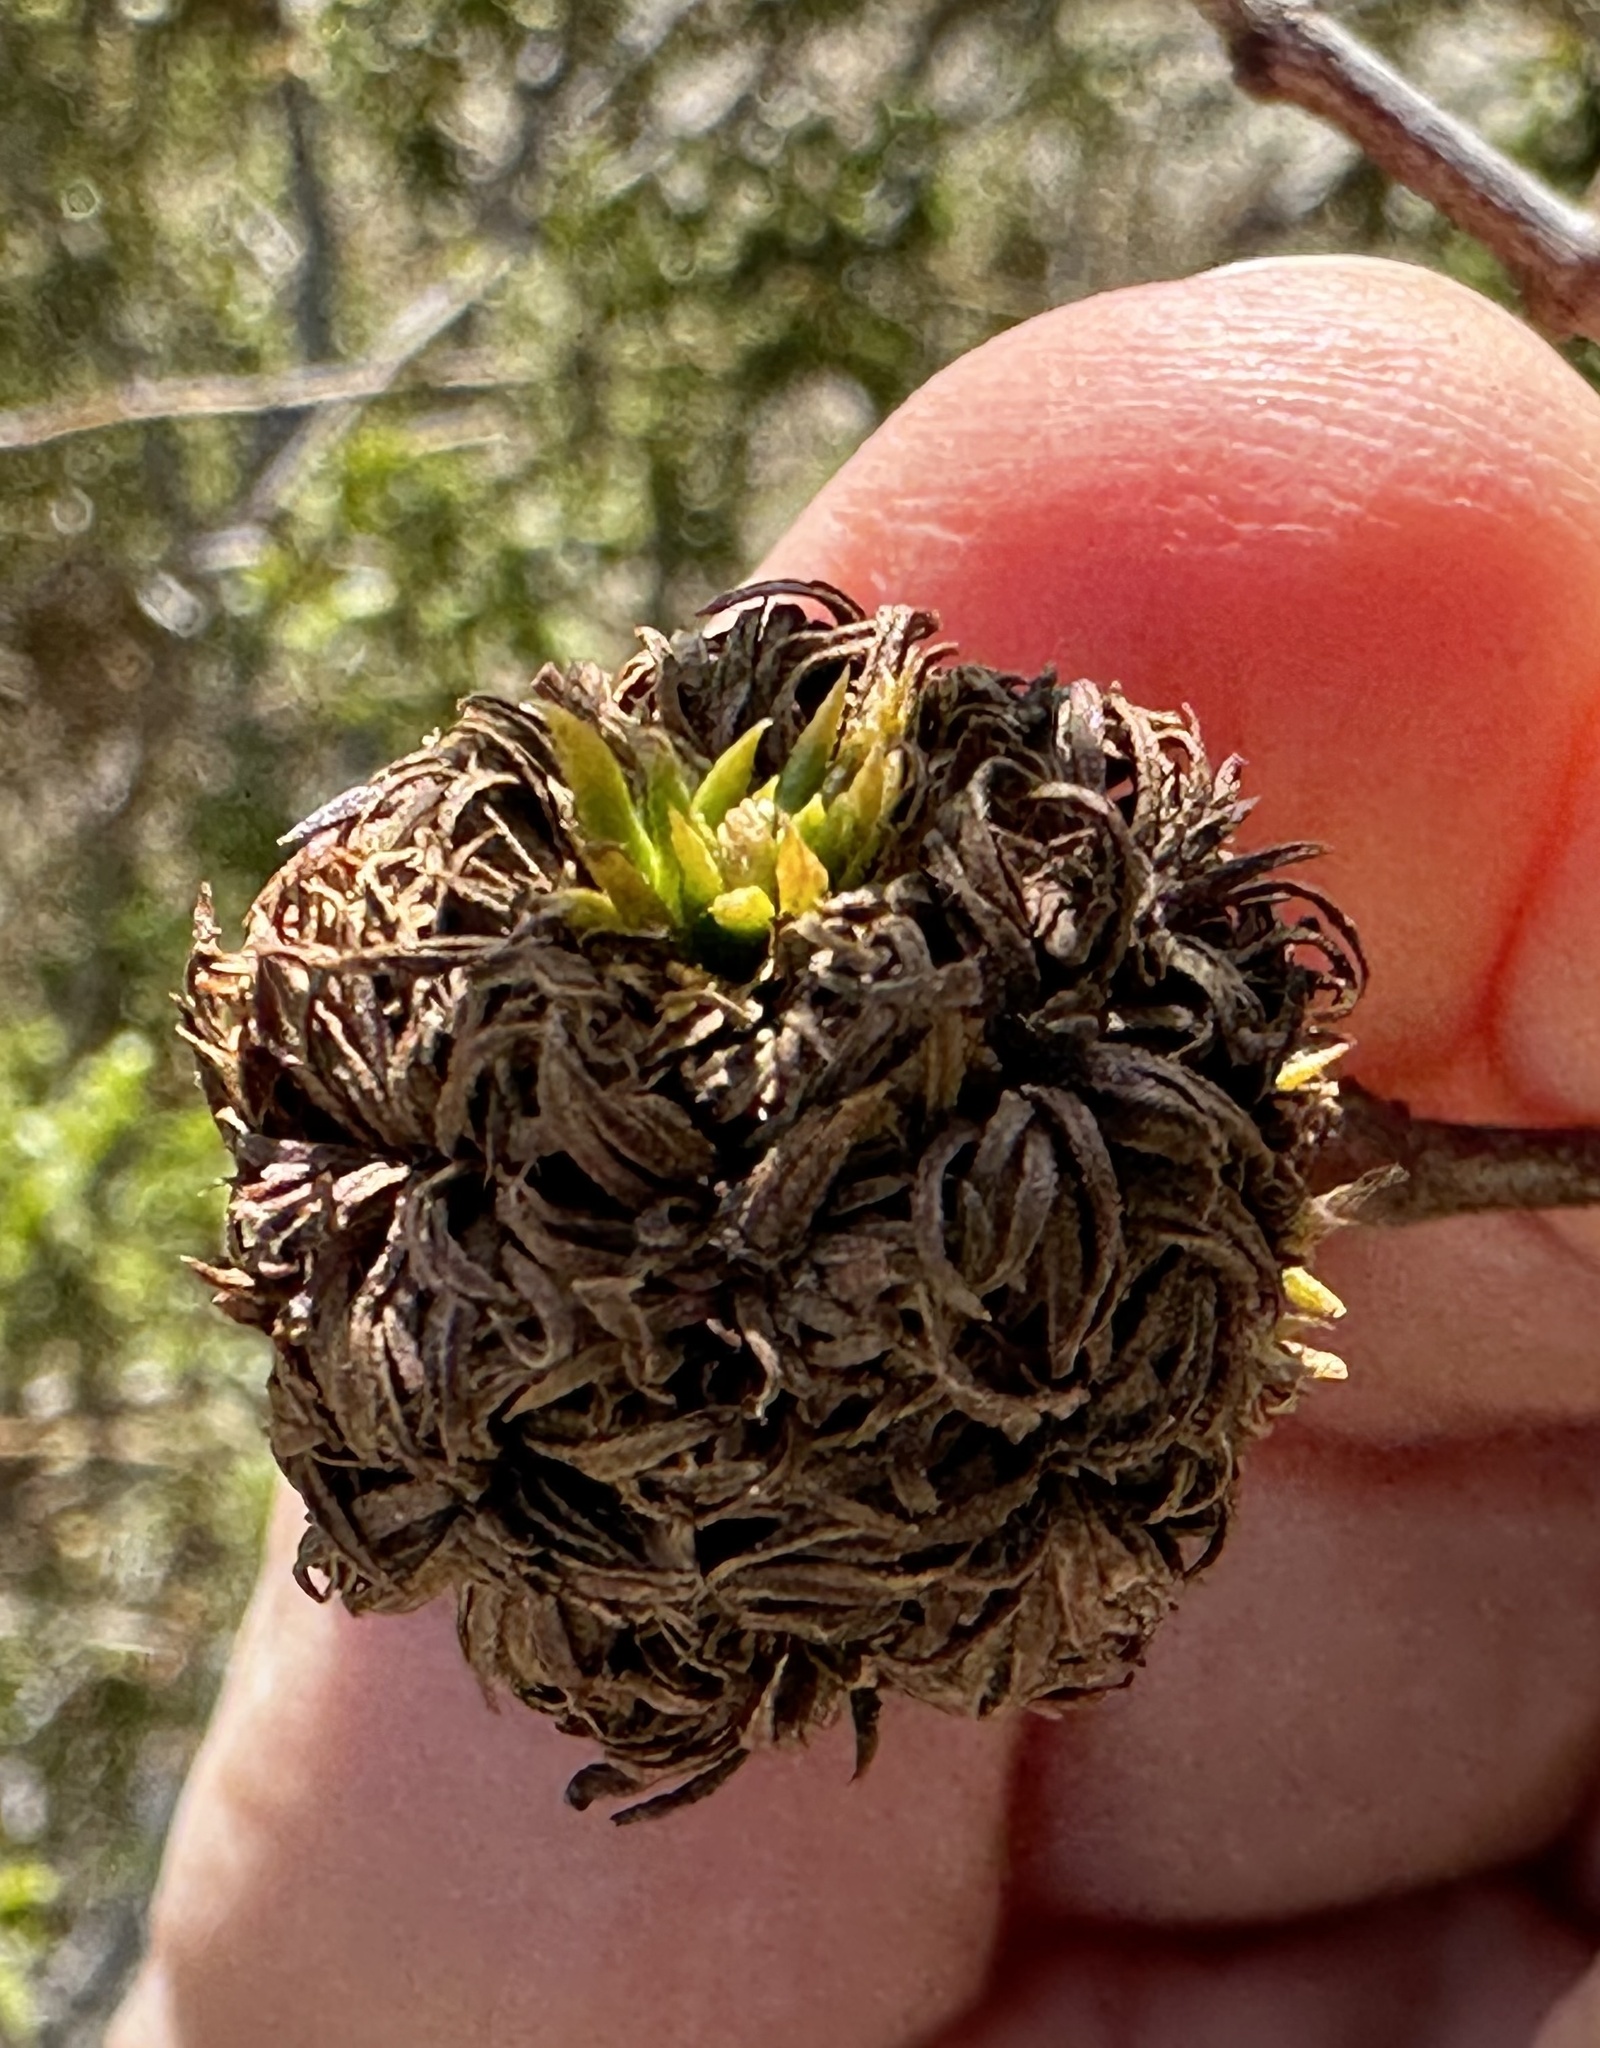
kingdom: Animalia
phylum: Arthropoda
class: Insecta
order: Diptera
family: Cecidomyiidae
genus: Asphondylia
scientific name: Asphondylia auripila
